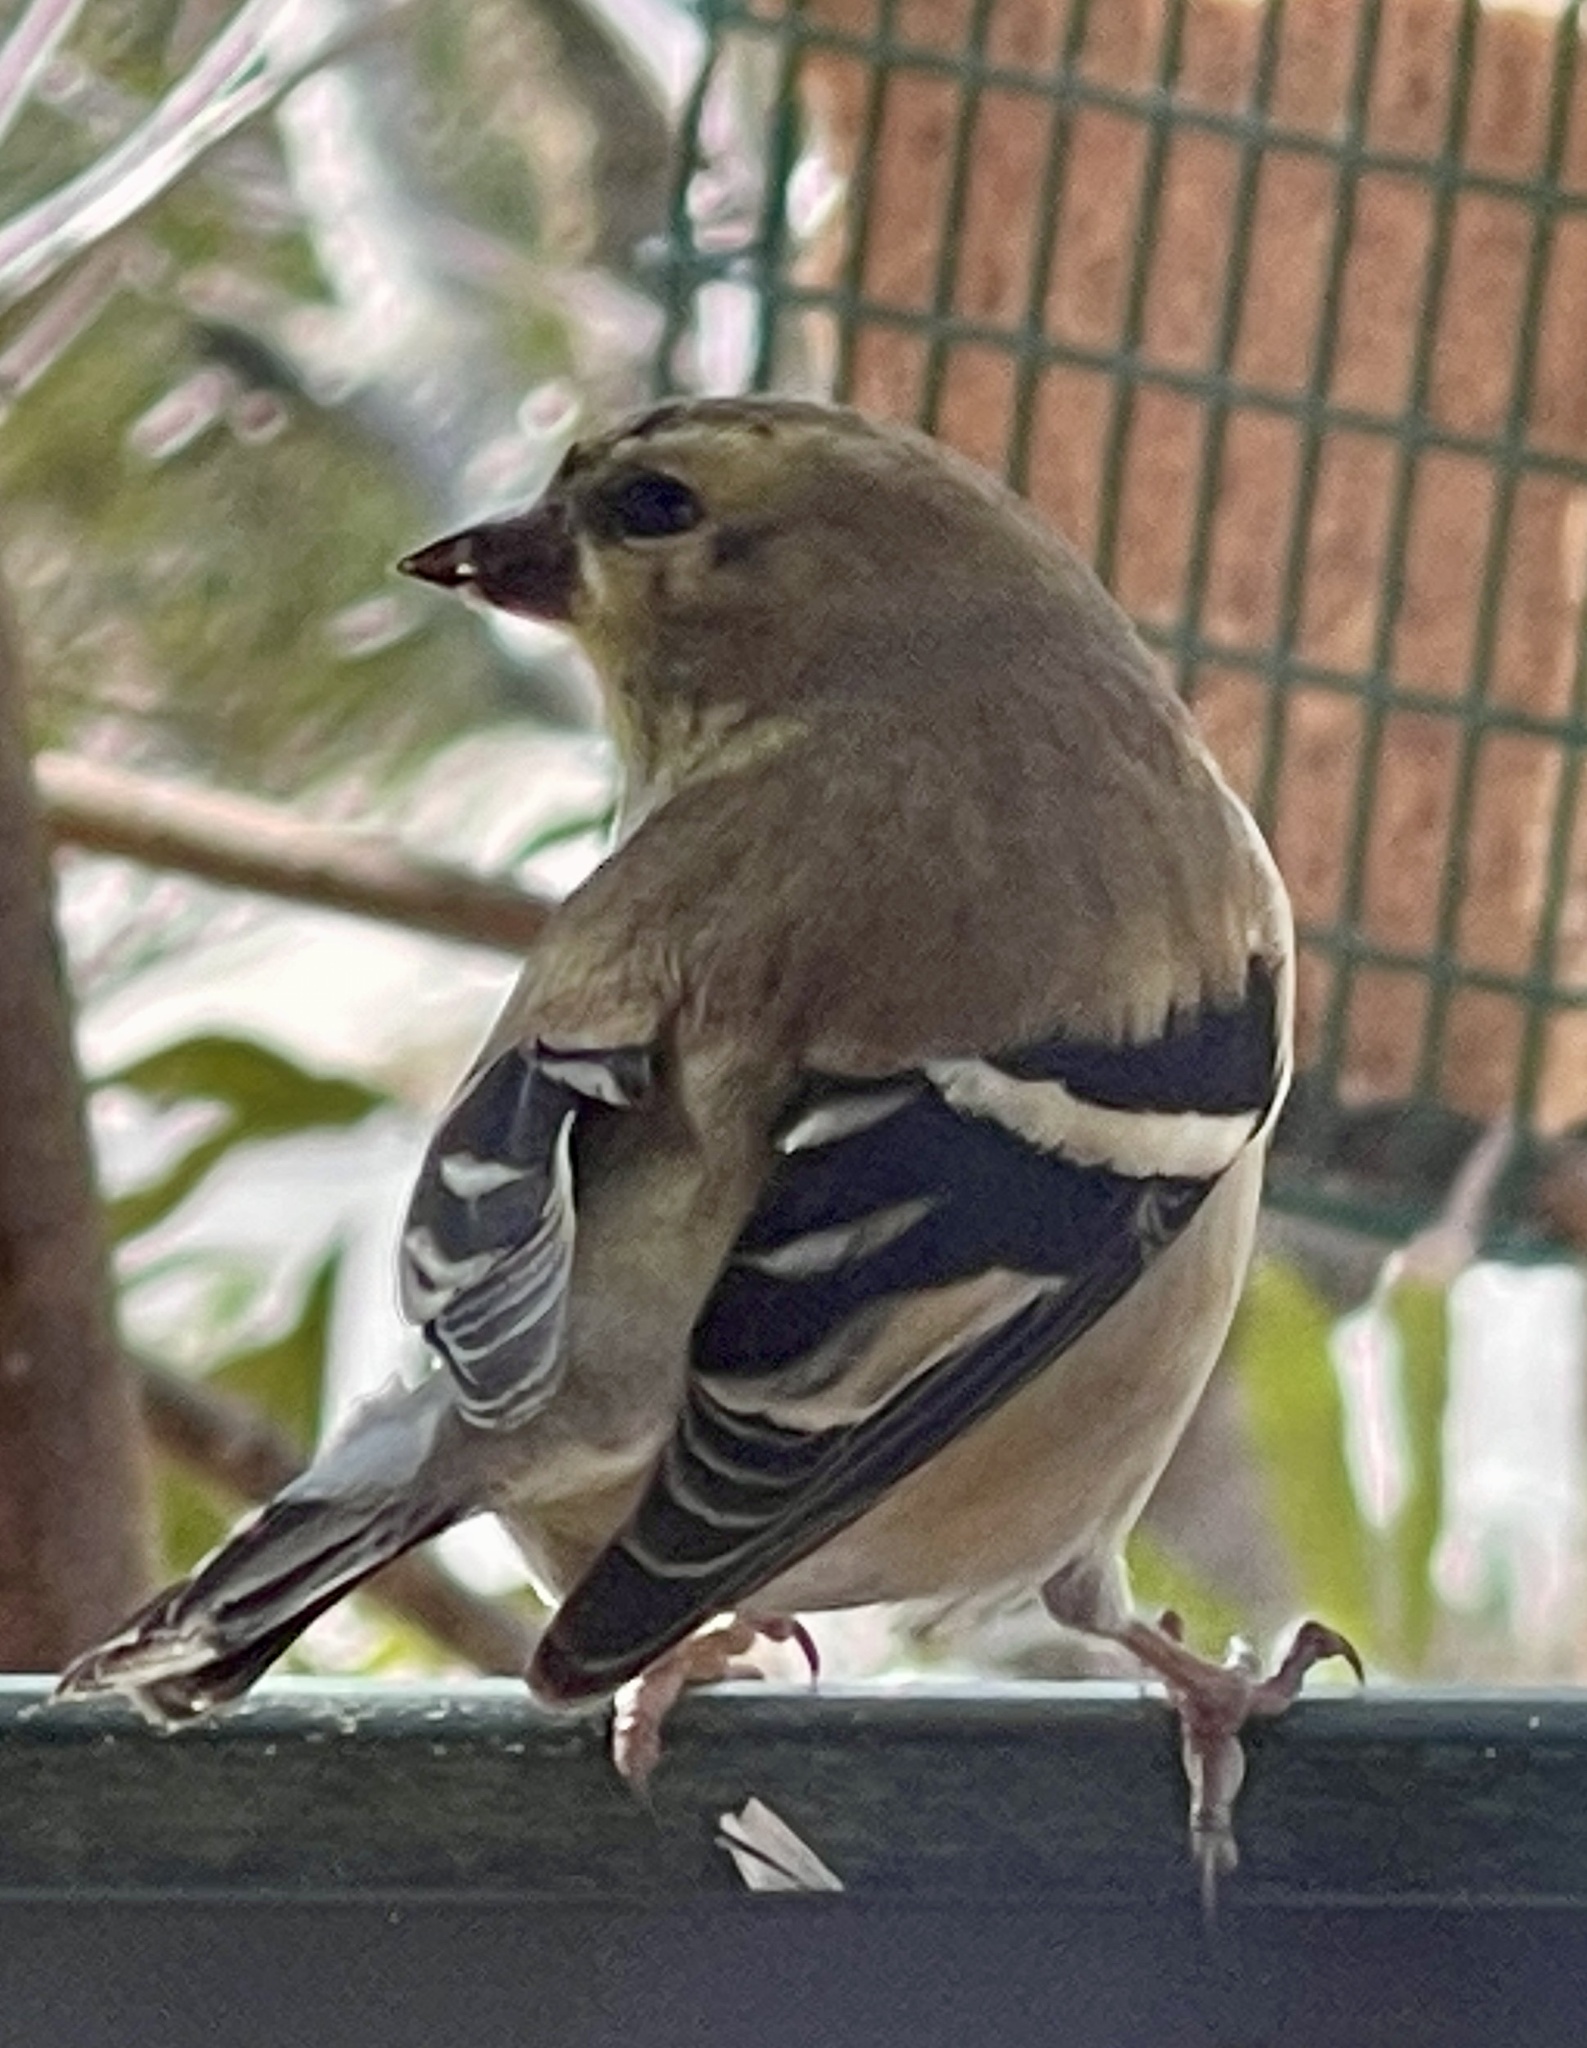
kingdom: Animalia
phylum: Chordata
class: Aves
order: Passeriformes
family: Fringillidae
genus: Spinus
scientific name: Spinus tristis
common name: American goldfinch
